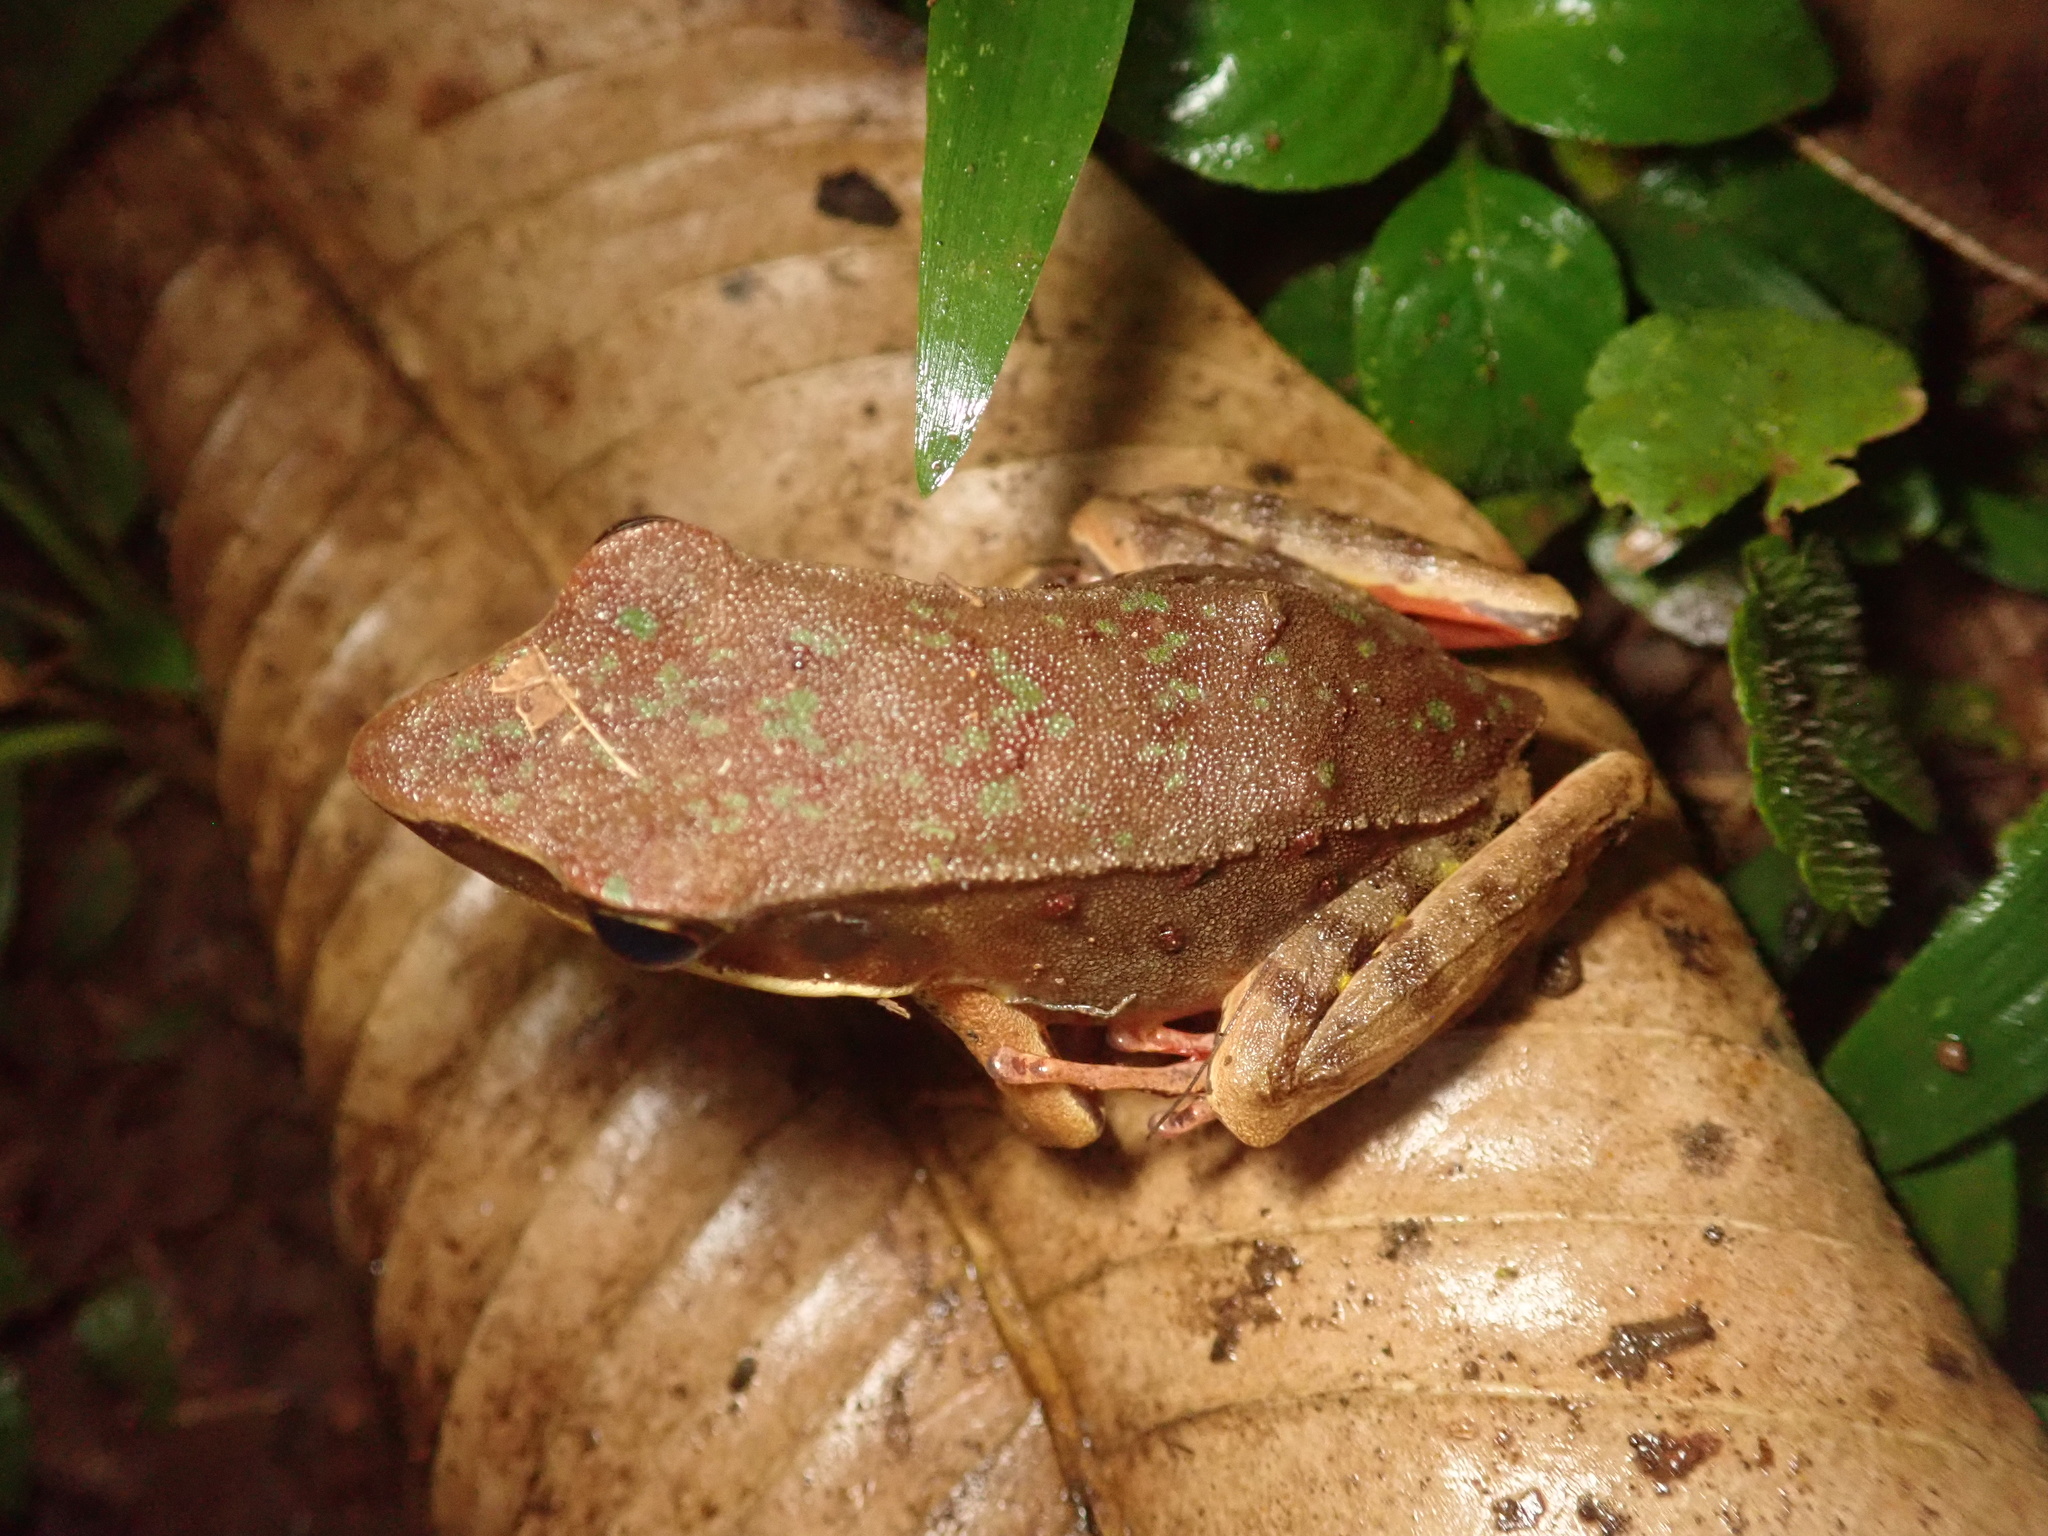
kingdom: Animalia
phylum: Chordata
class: Amphibia
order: Anura
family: Ranidae
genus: Lithobates
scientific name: Lithobates warszewitschii
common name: Warszewitsch's frog
